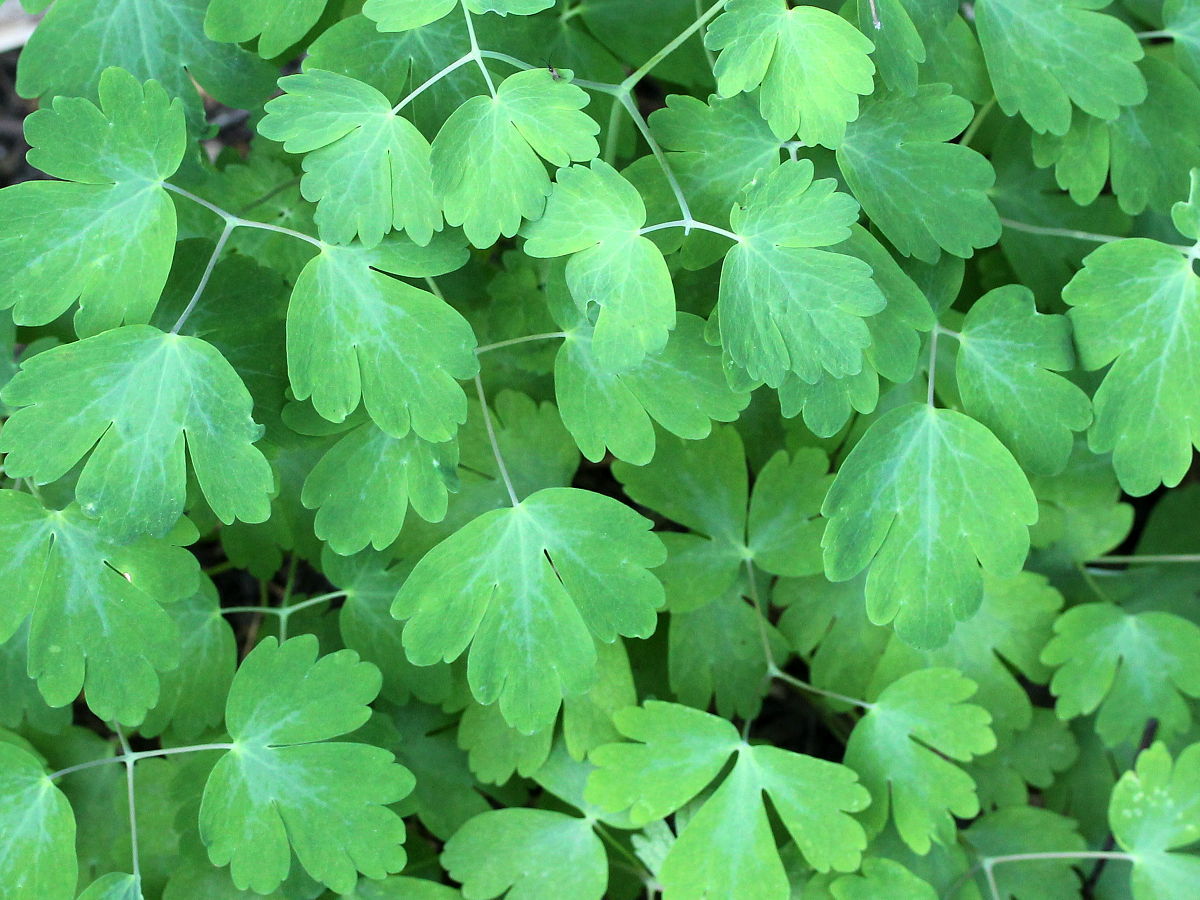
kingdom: Plantae
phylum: Tracheophyta
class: Magnoliopsida
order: Ranunculales
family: Ranunculaceae
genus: Enemion
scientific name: Enemion biternatum
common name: Eastern false rue-anemone
